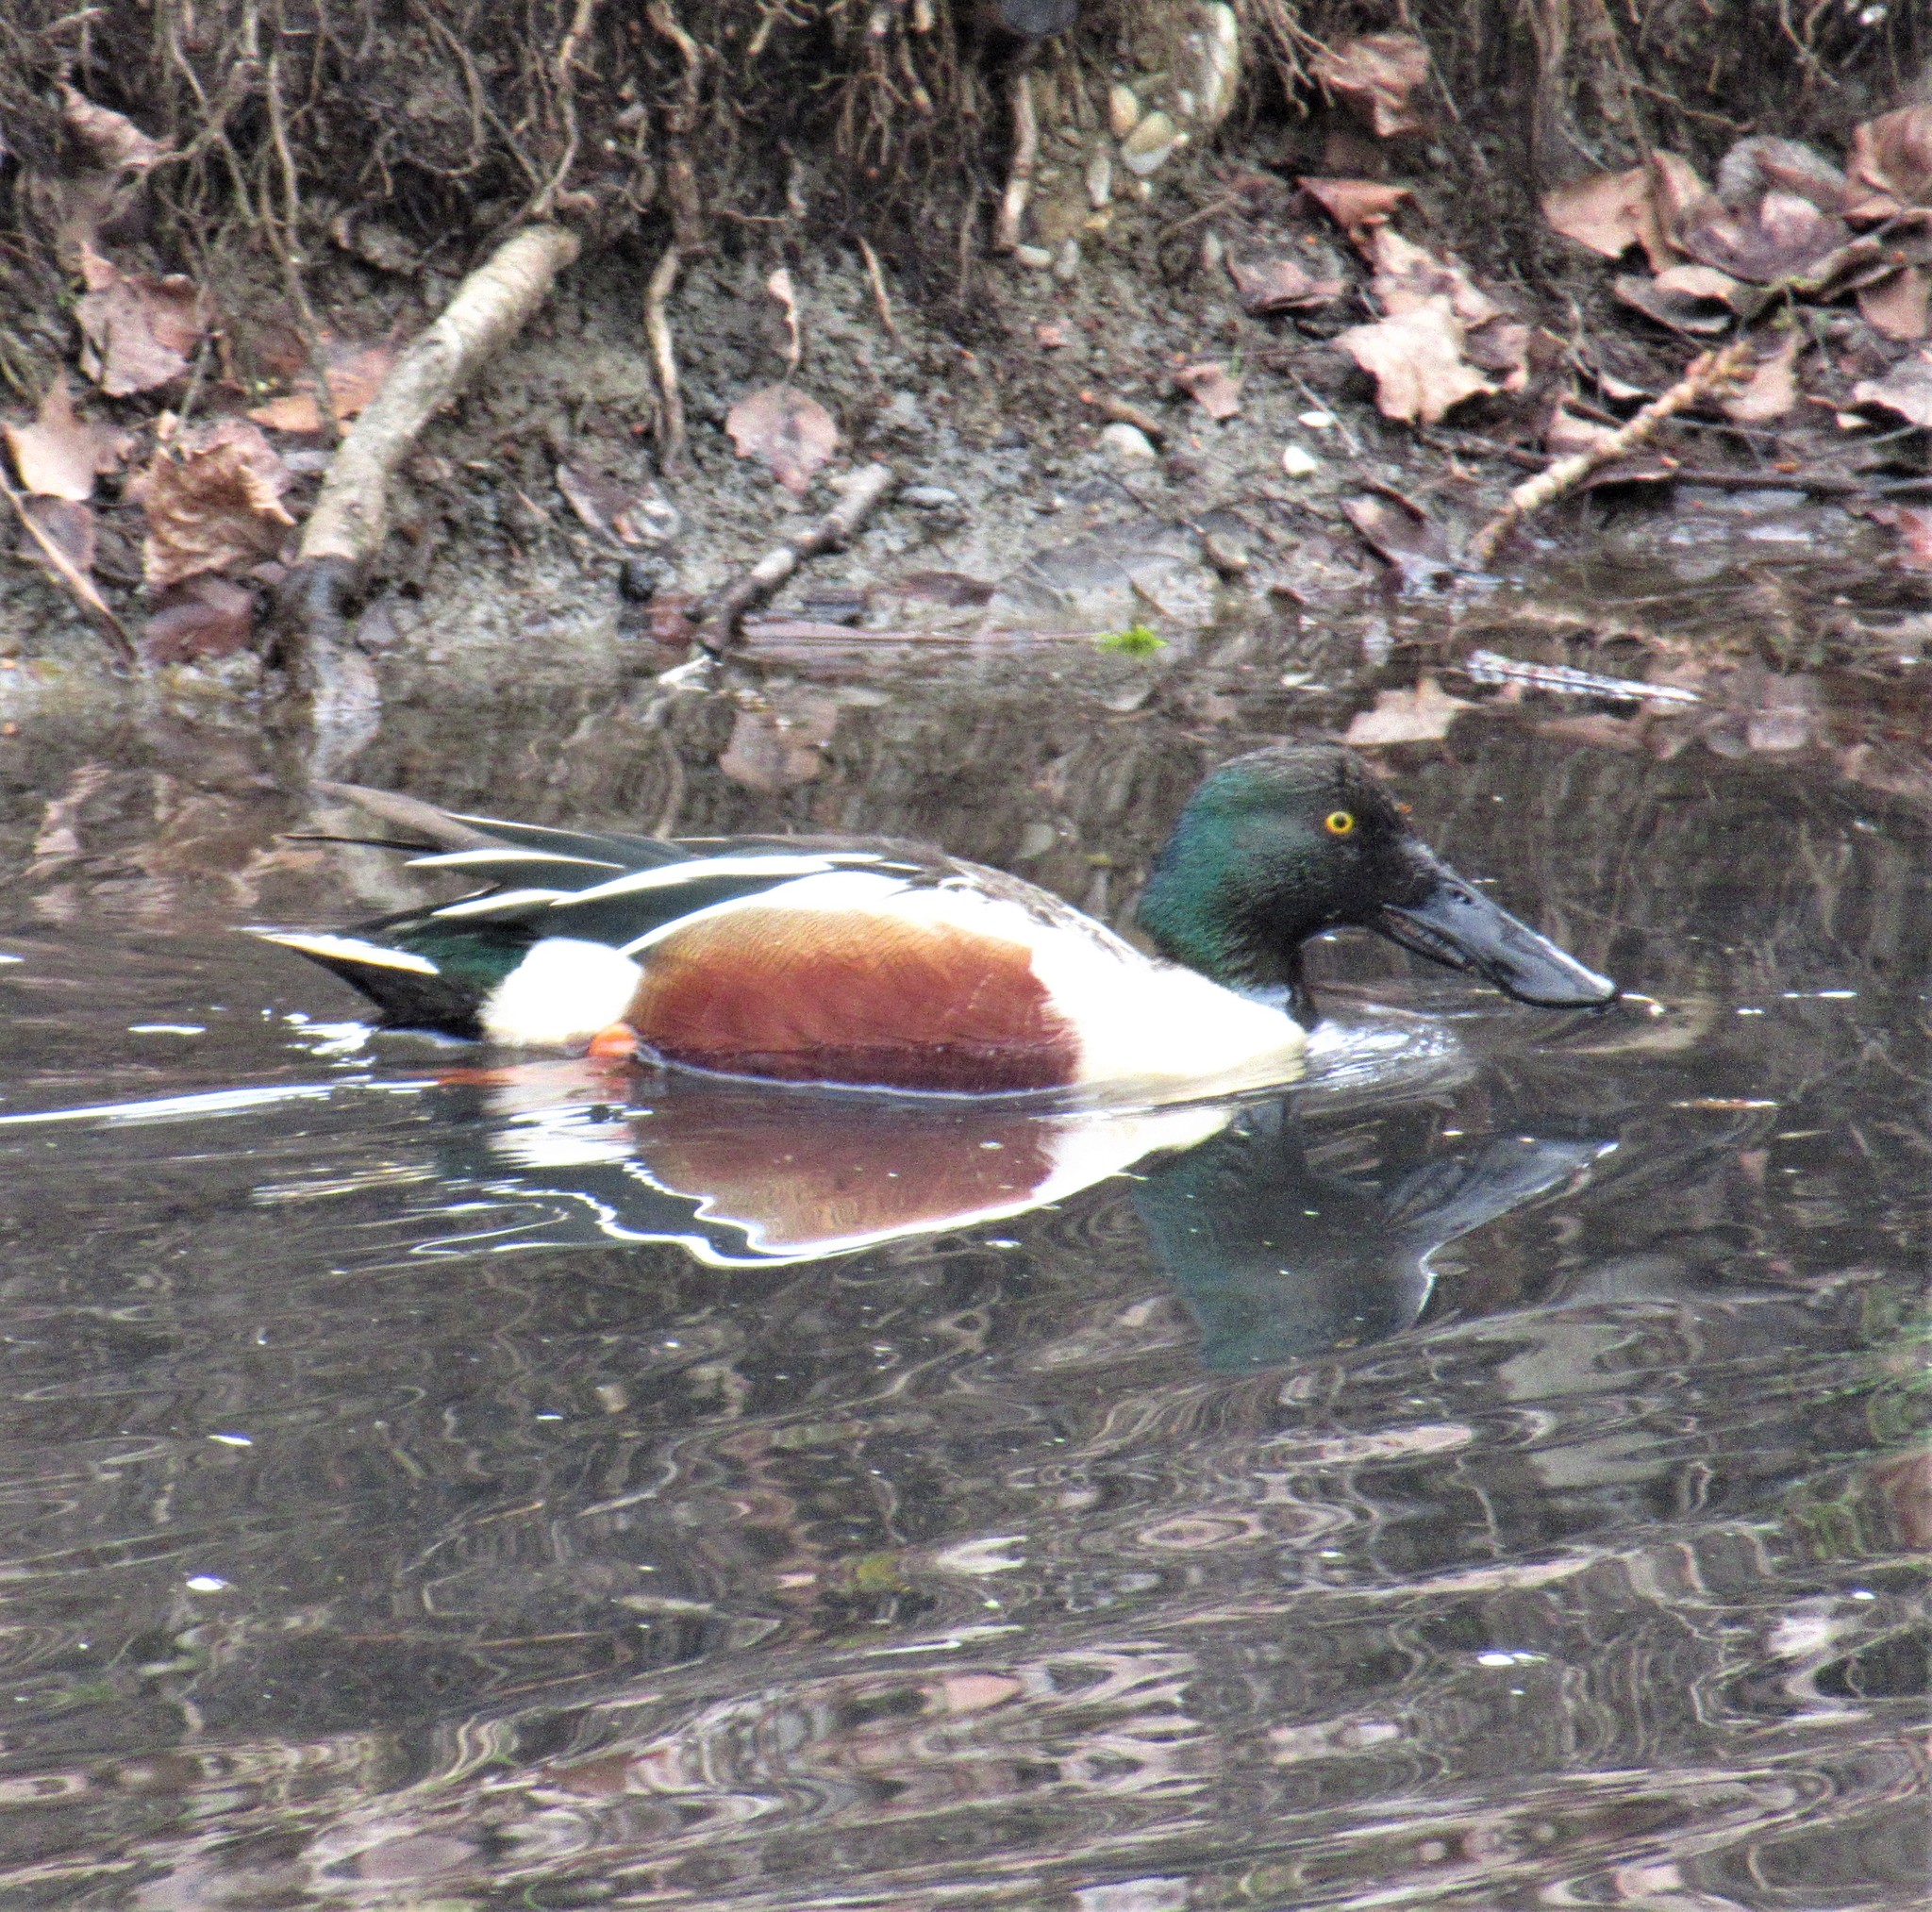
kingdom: Animalia
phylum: Chordata
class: Aves
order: Anseriformes
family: Anatidae
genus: Spatula
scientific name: Spatula clypeata
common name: Northern shoveler
